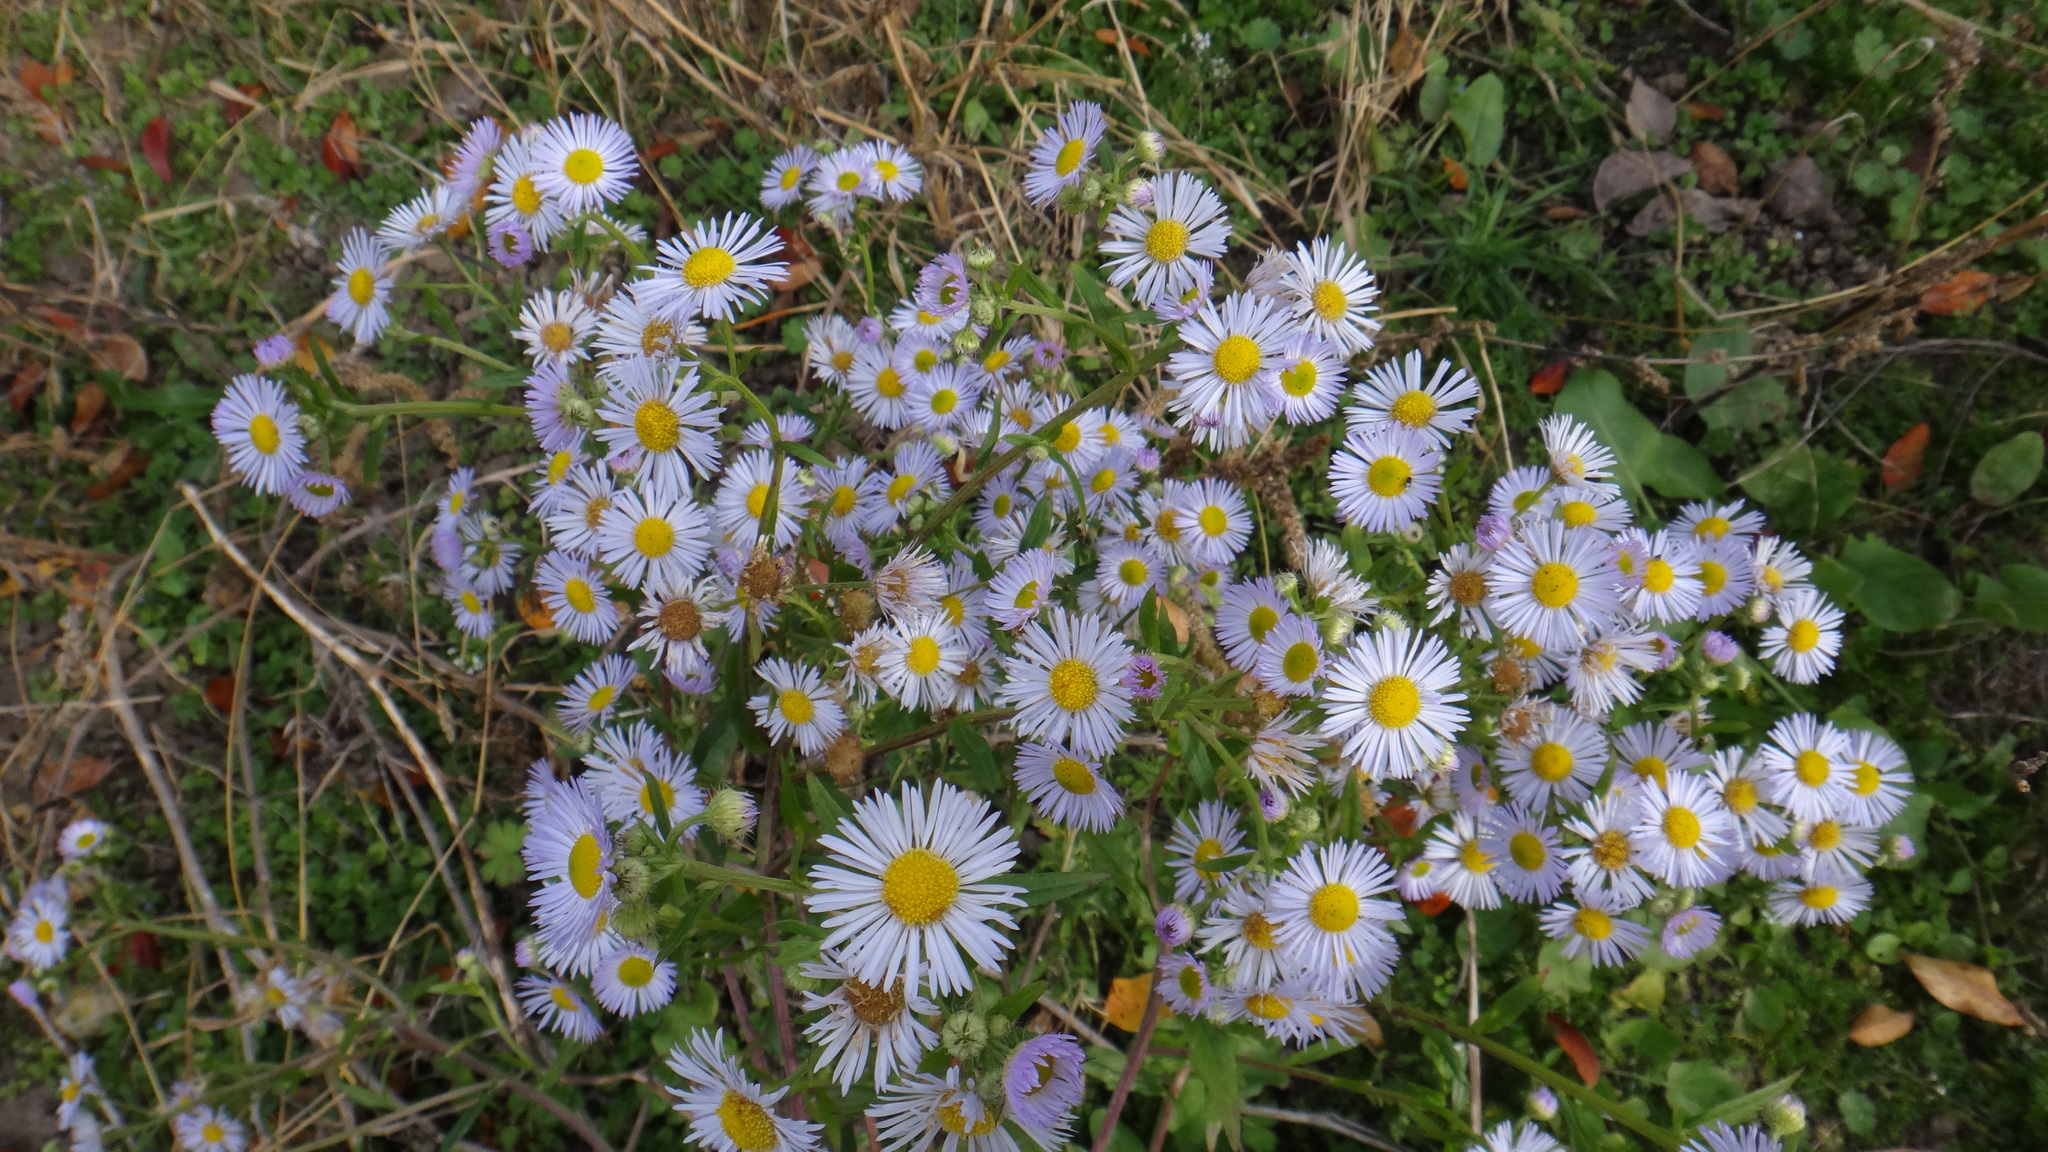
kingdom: Plantae
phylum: Tracheophyta
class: Magnoliopsida
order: Asterales
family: Asteraceae
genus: Erigeron
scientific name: Erigeron annuus
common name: Tall fleabane
